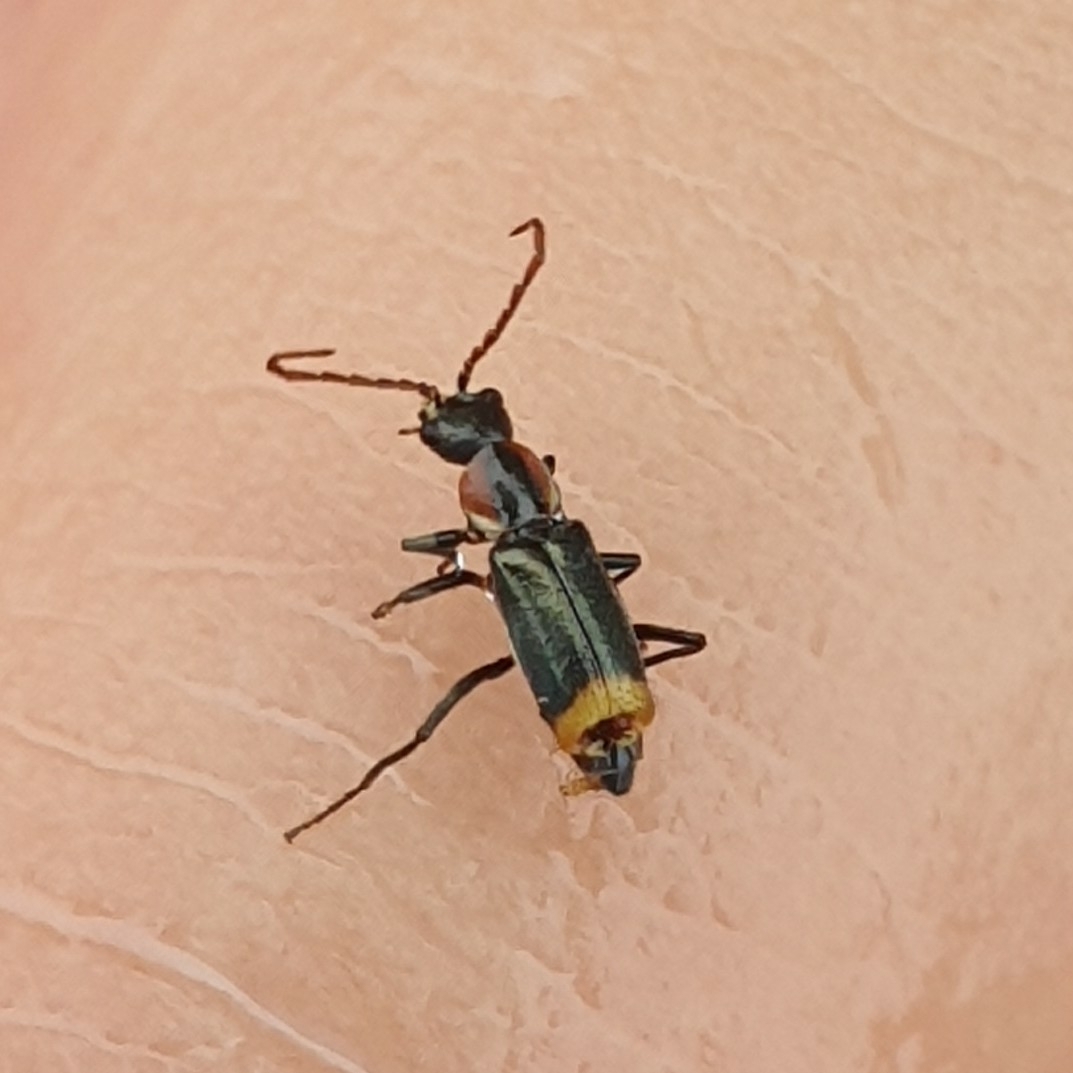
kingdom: Animalia
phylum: Arthropoda
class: Insecta
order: Coleoptera
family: Melyridae
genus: Axinotarsus
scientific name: Axinotarsus pulicarius
